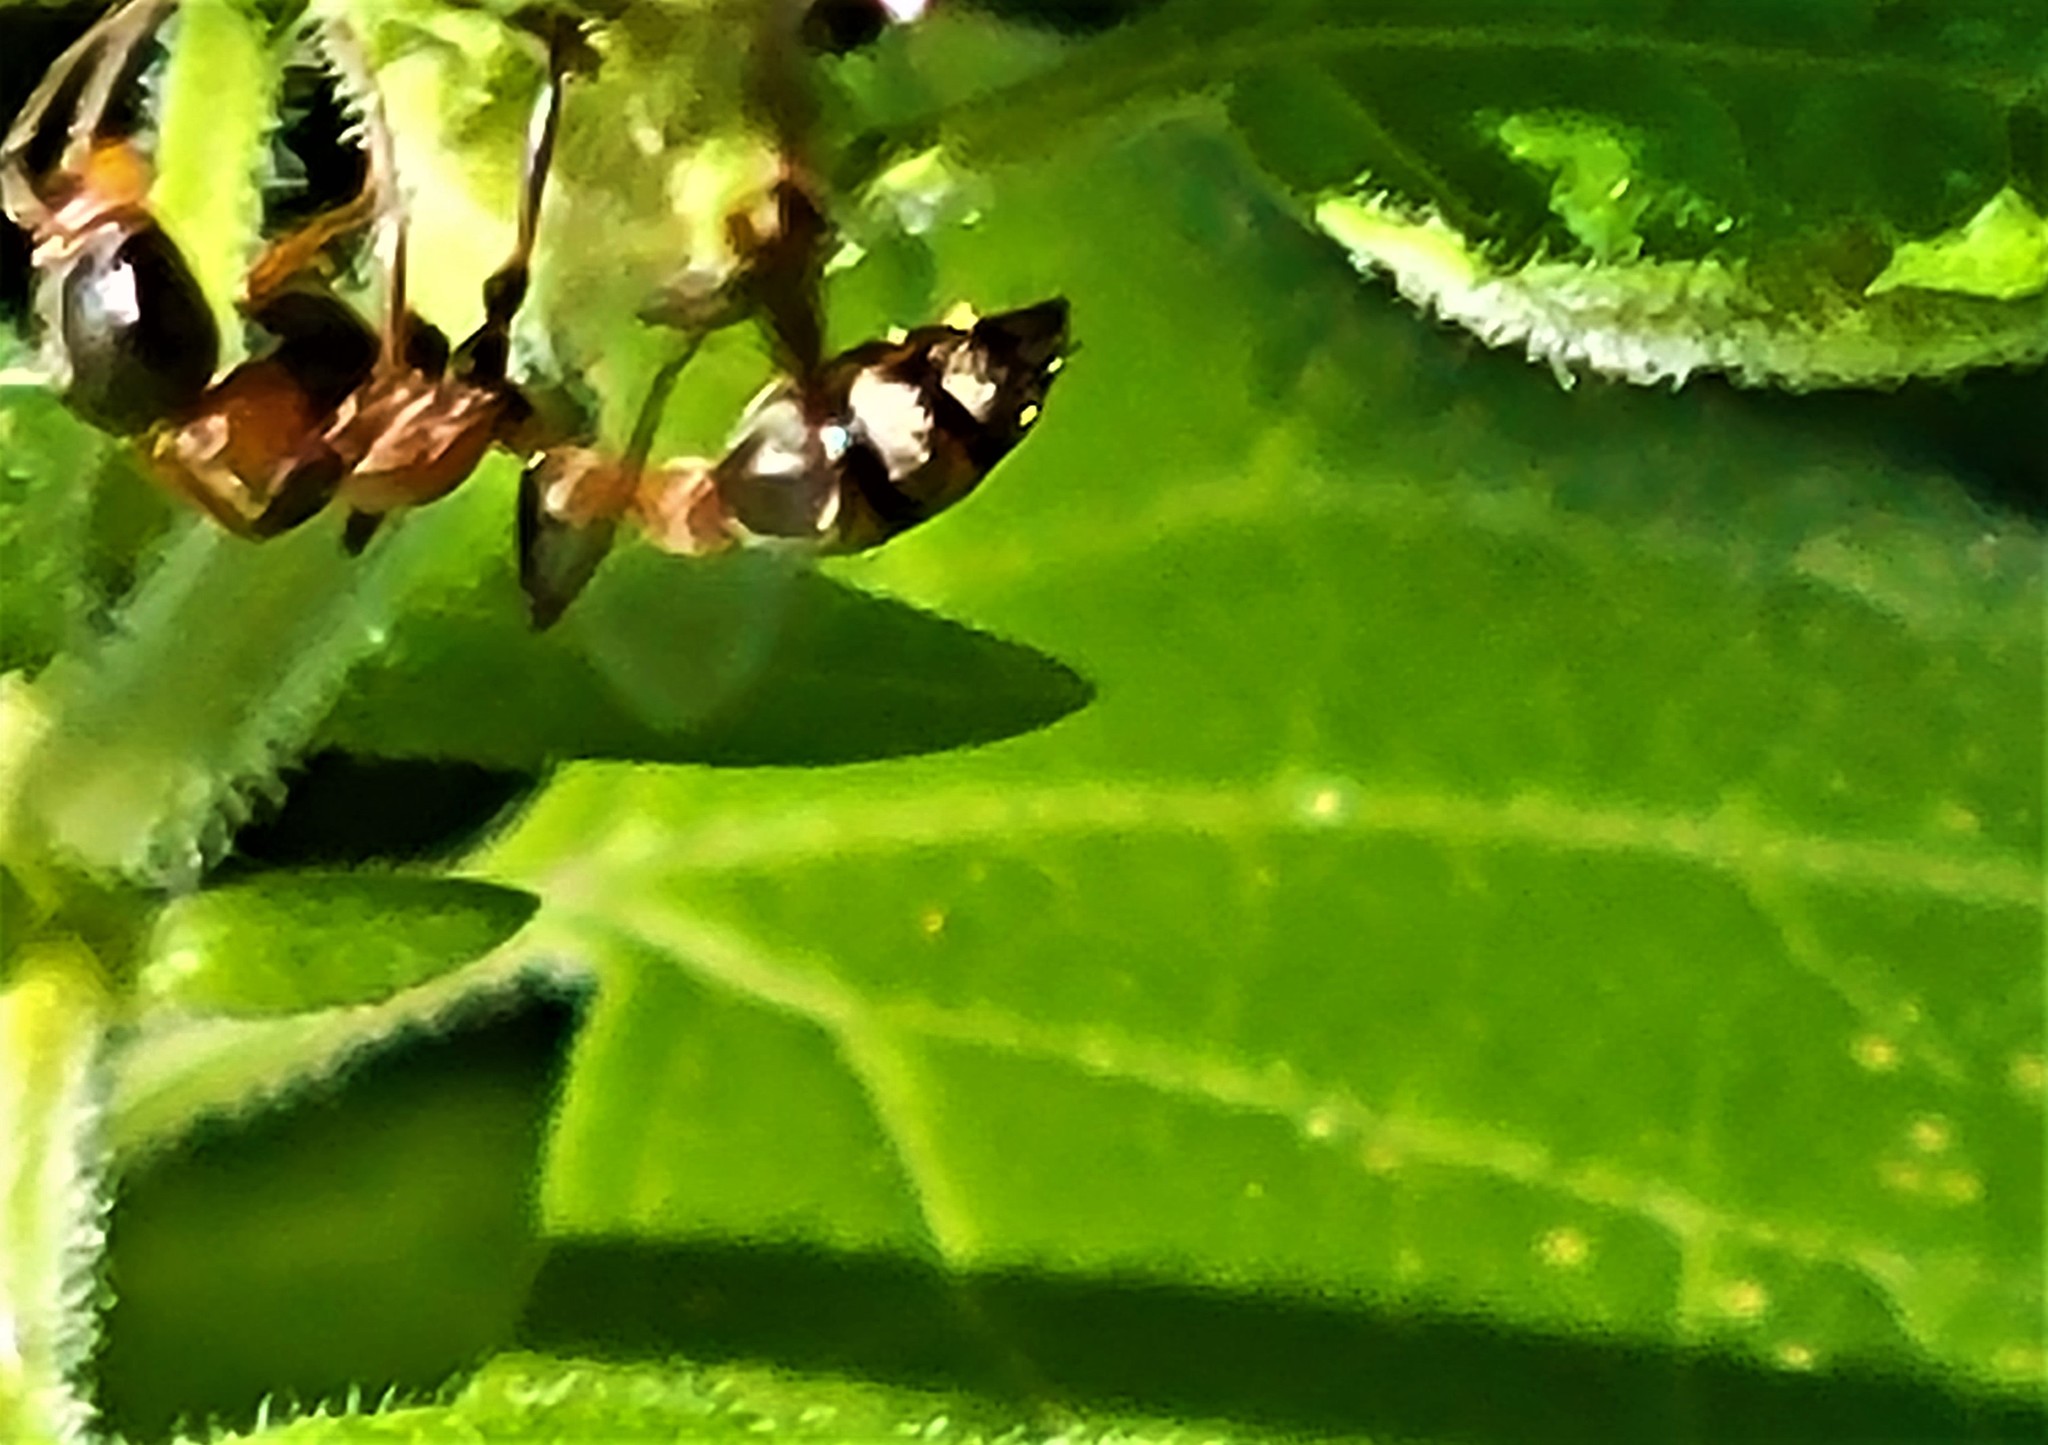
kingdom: Animalia
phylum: Arthropoda
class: Insecta
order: Hymenoptera
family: Formicidae
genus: Pseudomyrmex
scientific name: Pseudomyrmex gracilis
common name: Graceful twig ant
